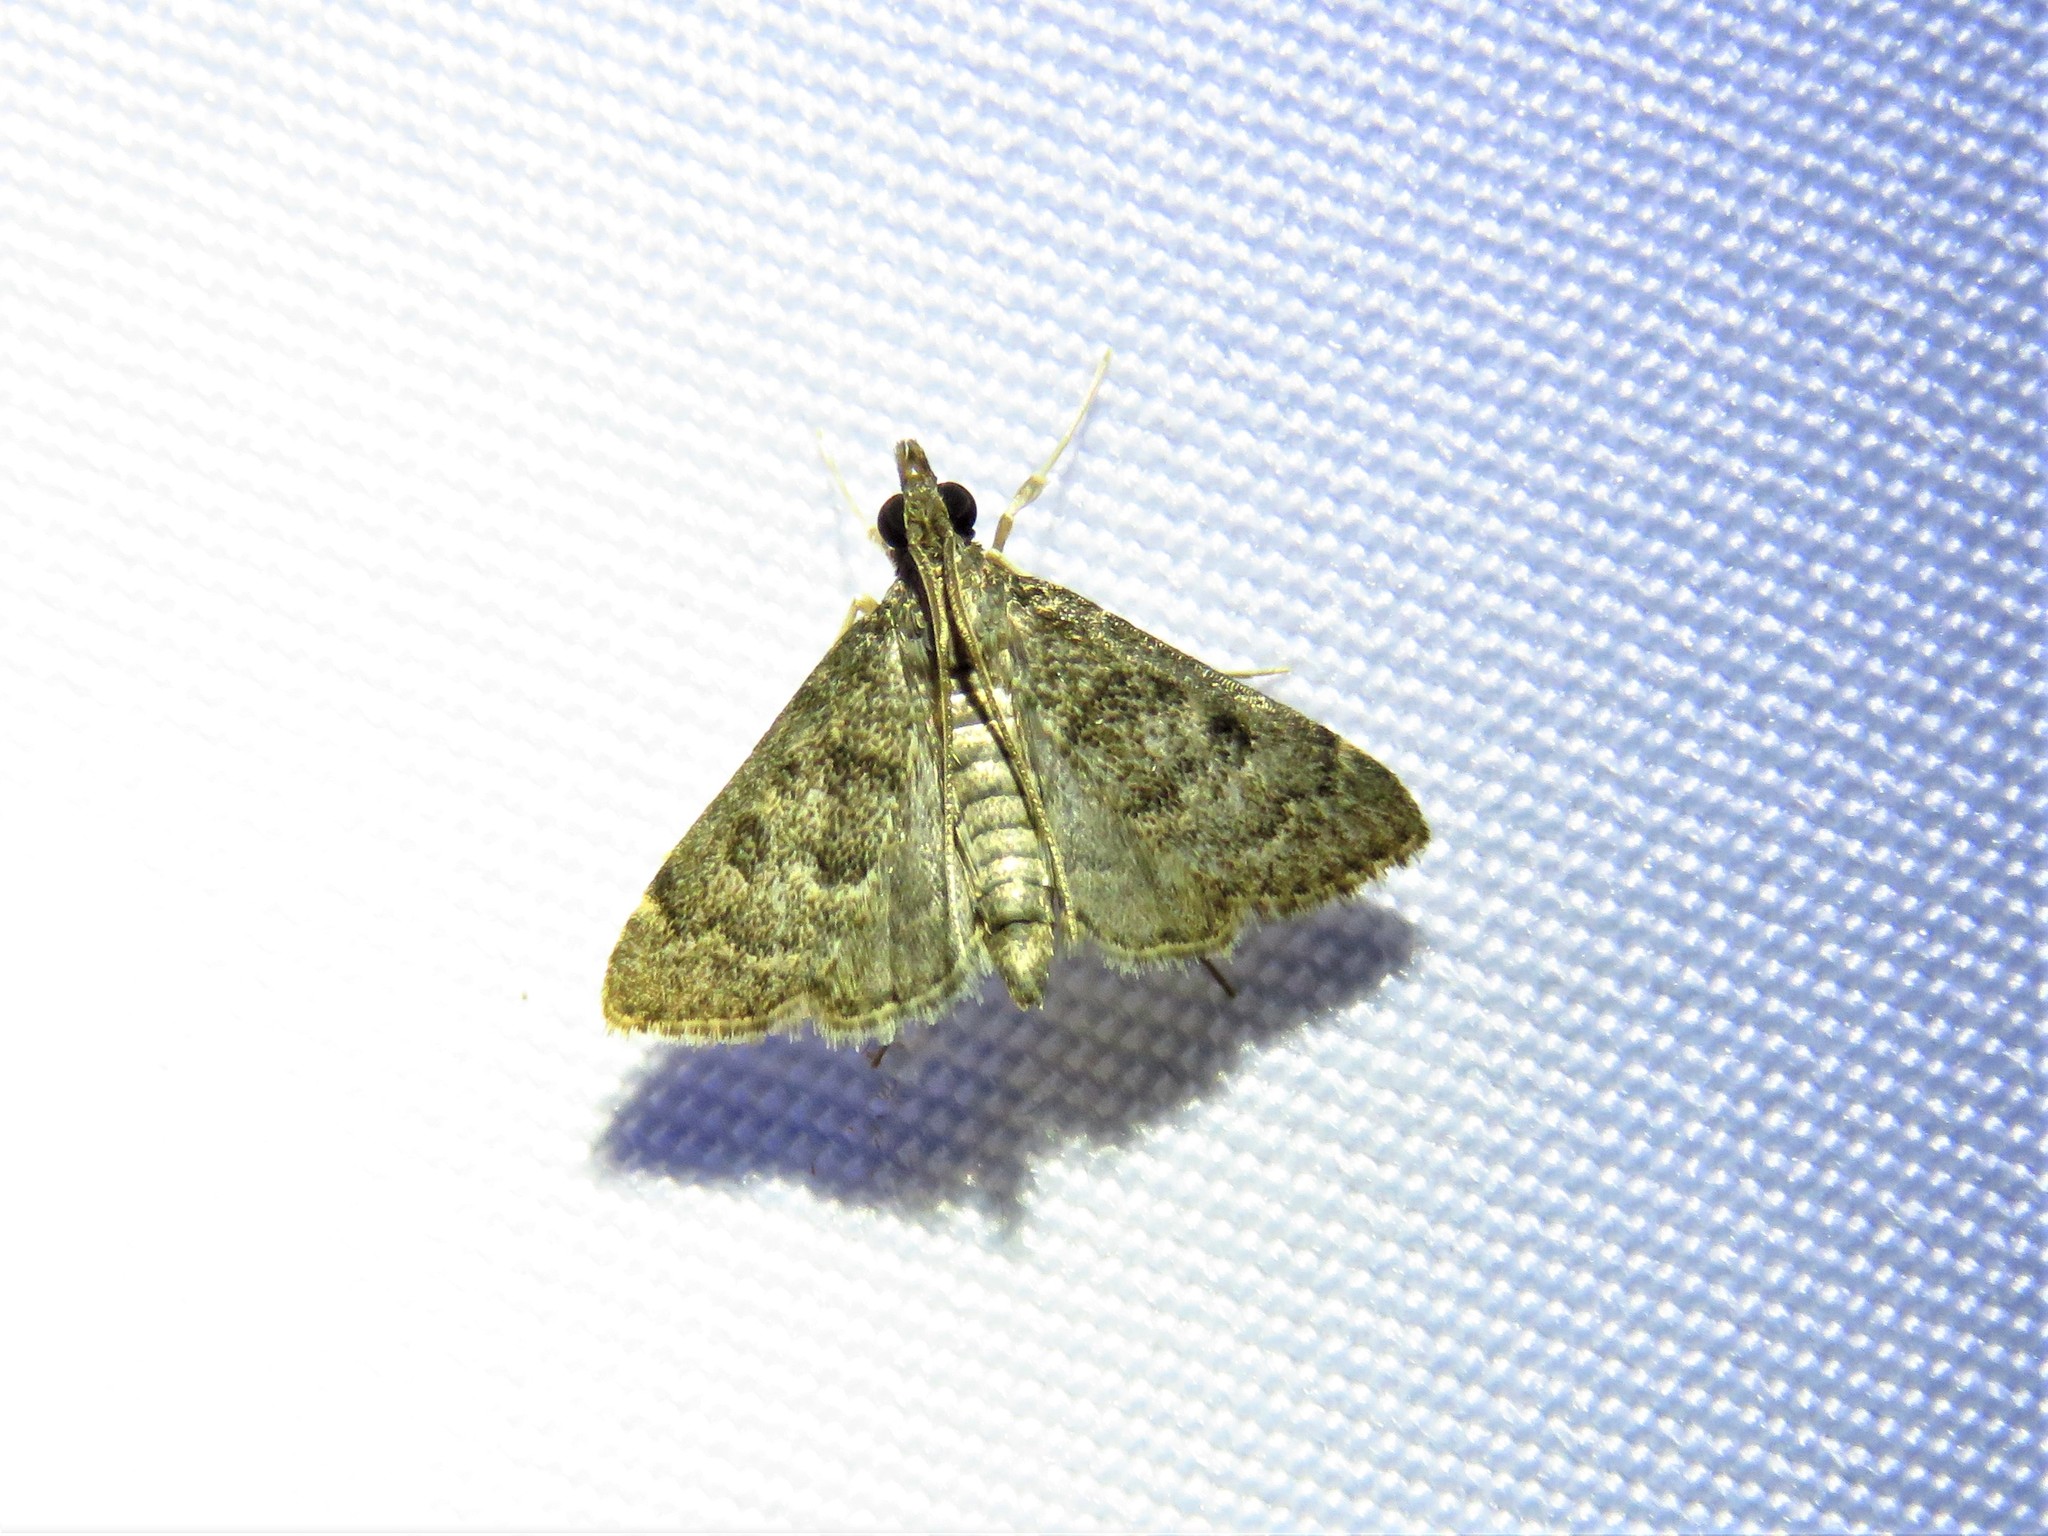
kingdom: Animalia
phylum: Arthropoda
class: Insecta
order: Lepidoptera
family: Crambidae
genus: Steniodes
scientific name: Steniodes declivalis
